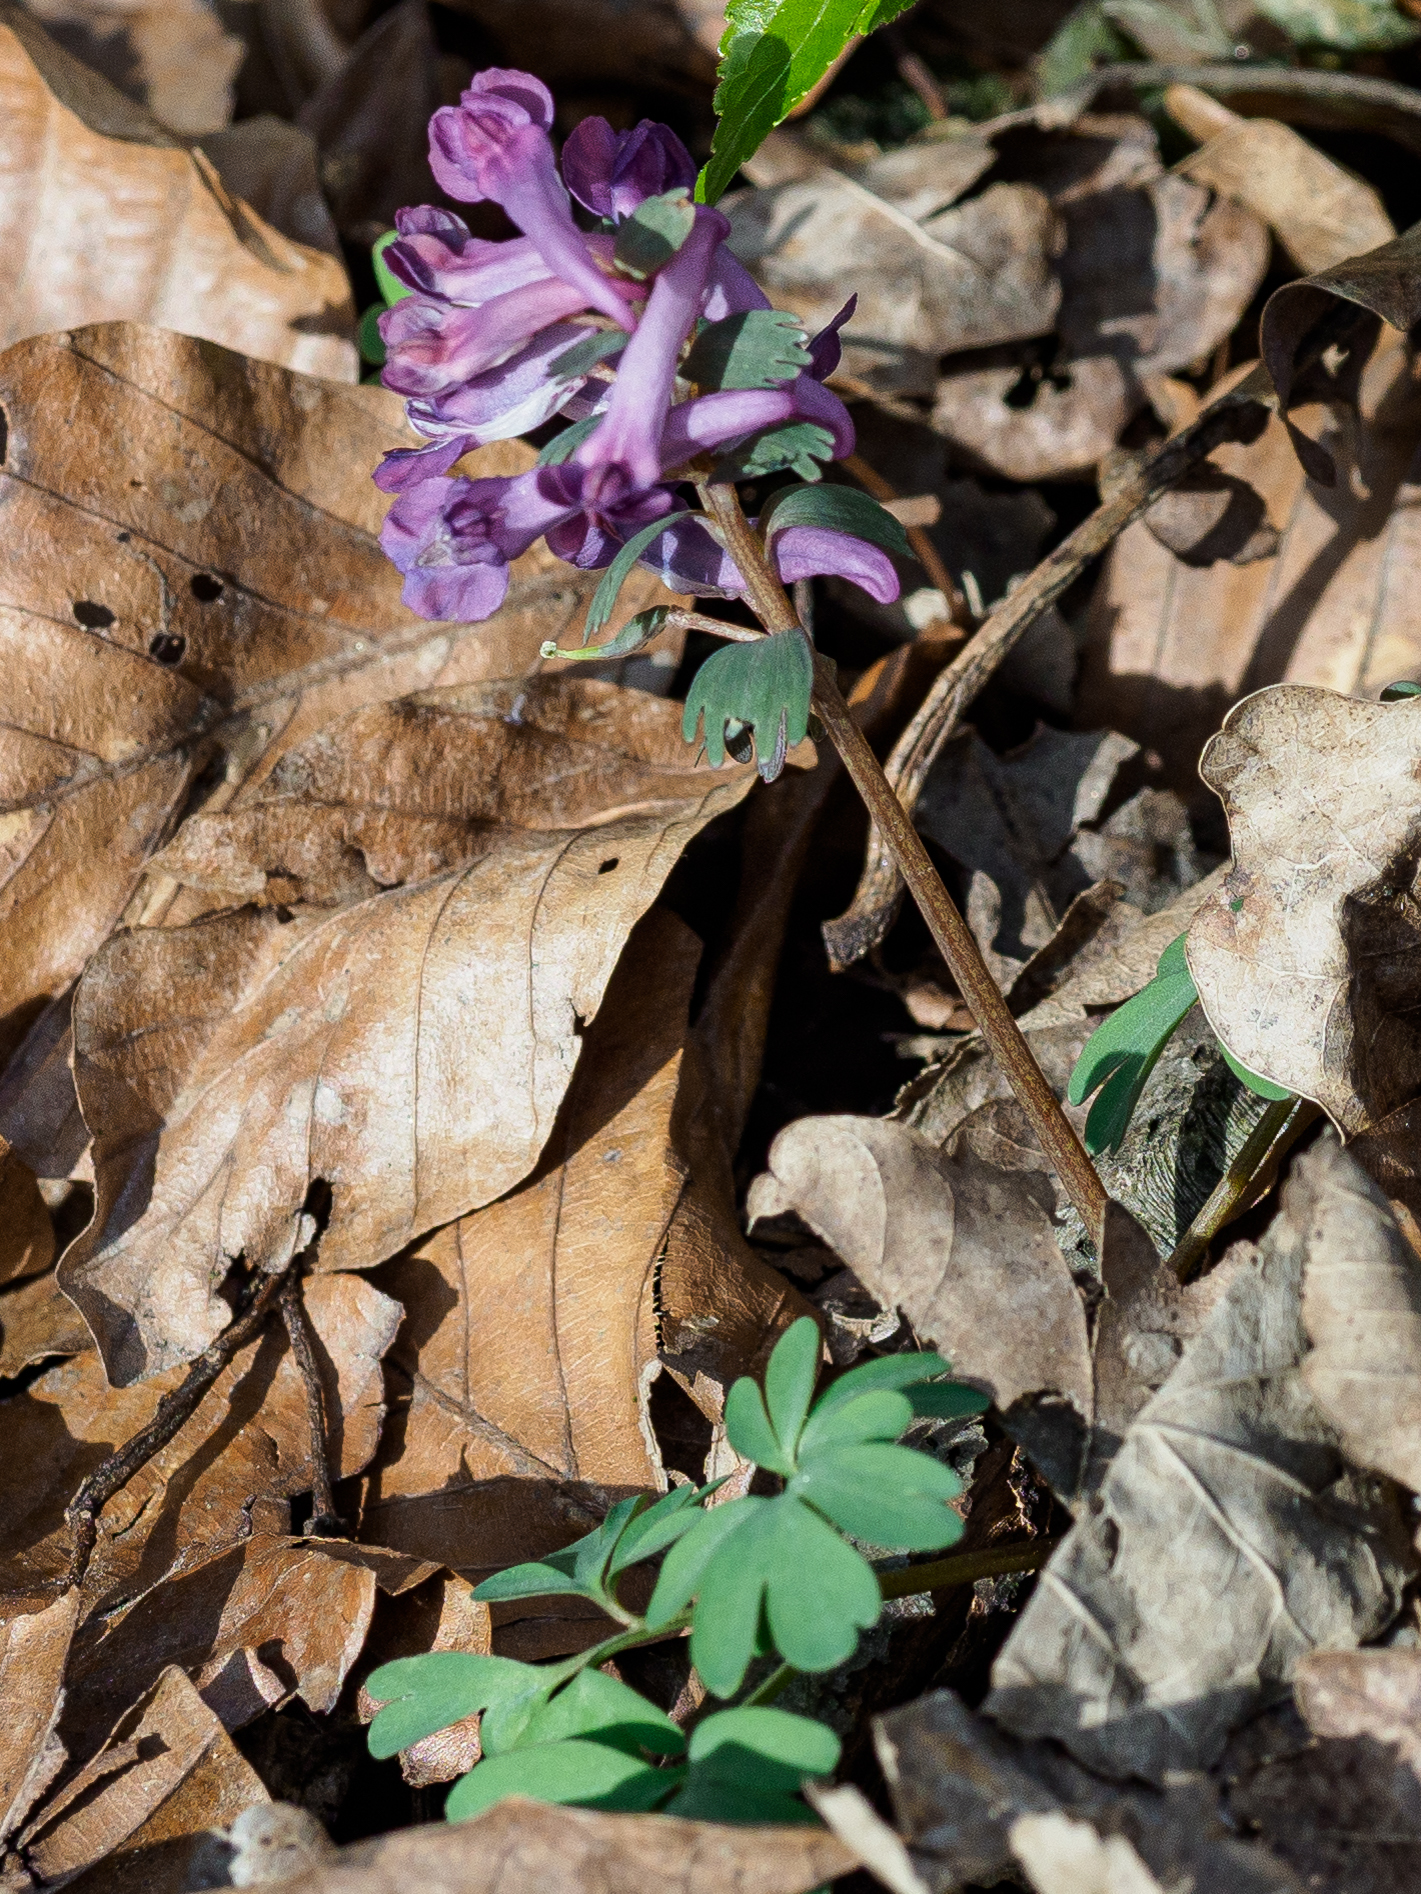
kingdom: Plantae
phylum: Tracheophyta
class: Magnoliopsida
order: Ranunculales
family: Papaveraceae
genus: Corydalis
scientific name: Corydalis solida
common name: Bird-in-a-bush
